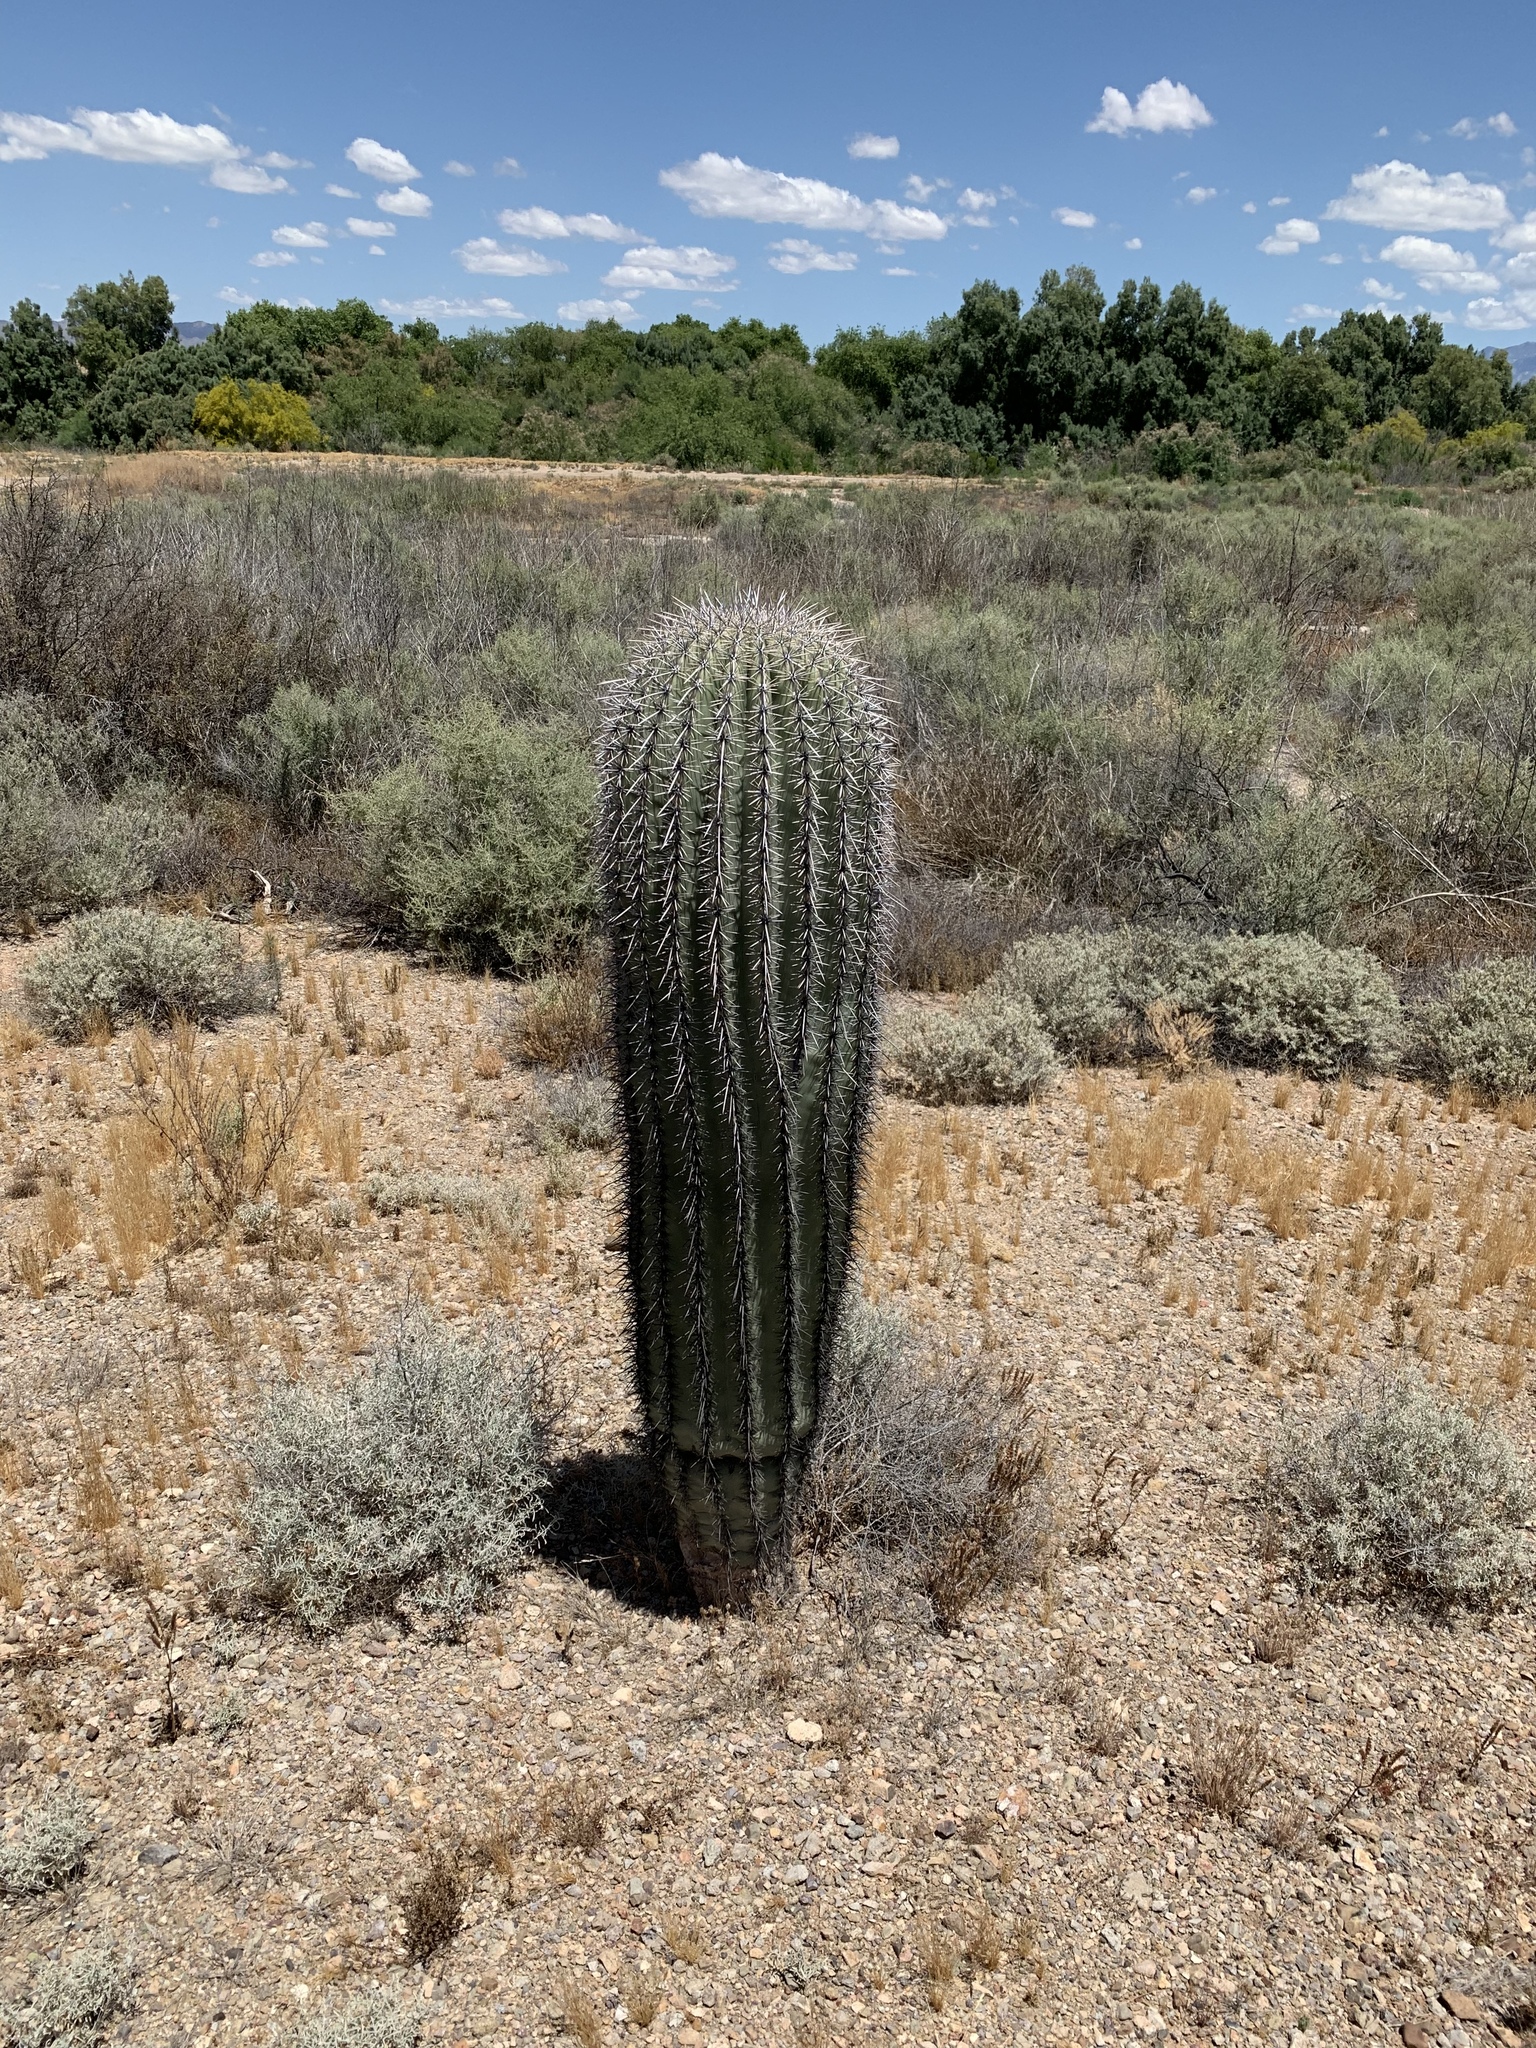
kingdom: Plantae
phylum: Tracheophyta
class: Magnoliopsida
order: Caryophyllales
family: Cactaceae
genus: Carnegiea
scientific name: Carnegiea gigantea
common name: Saguaro
